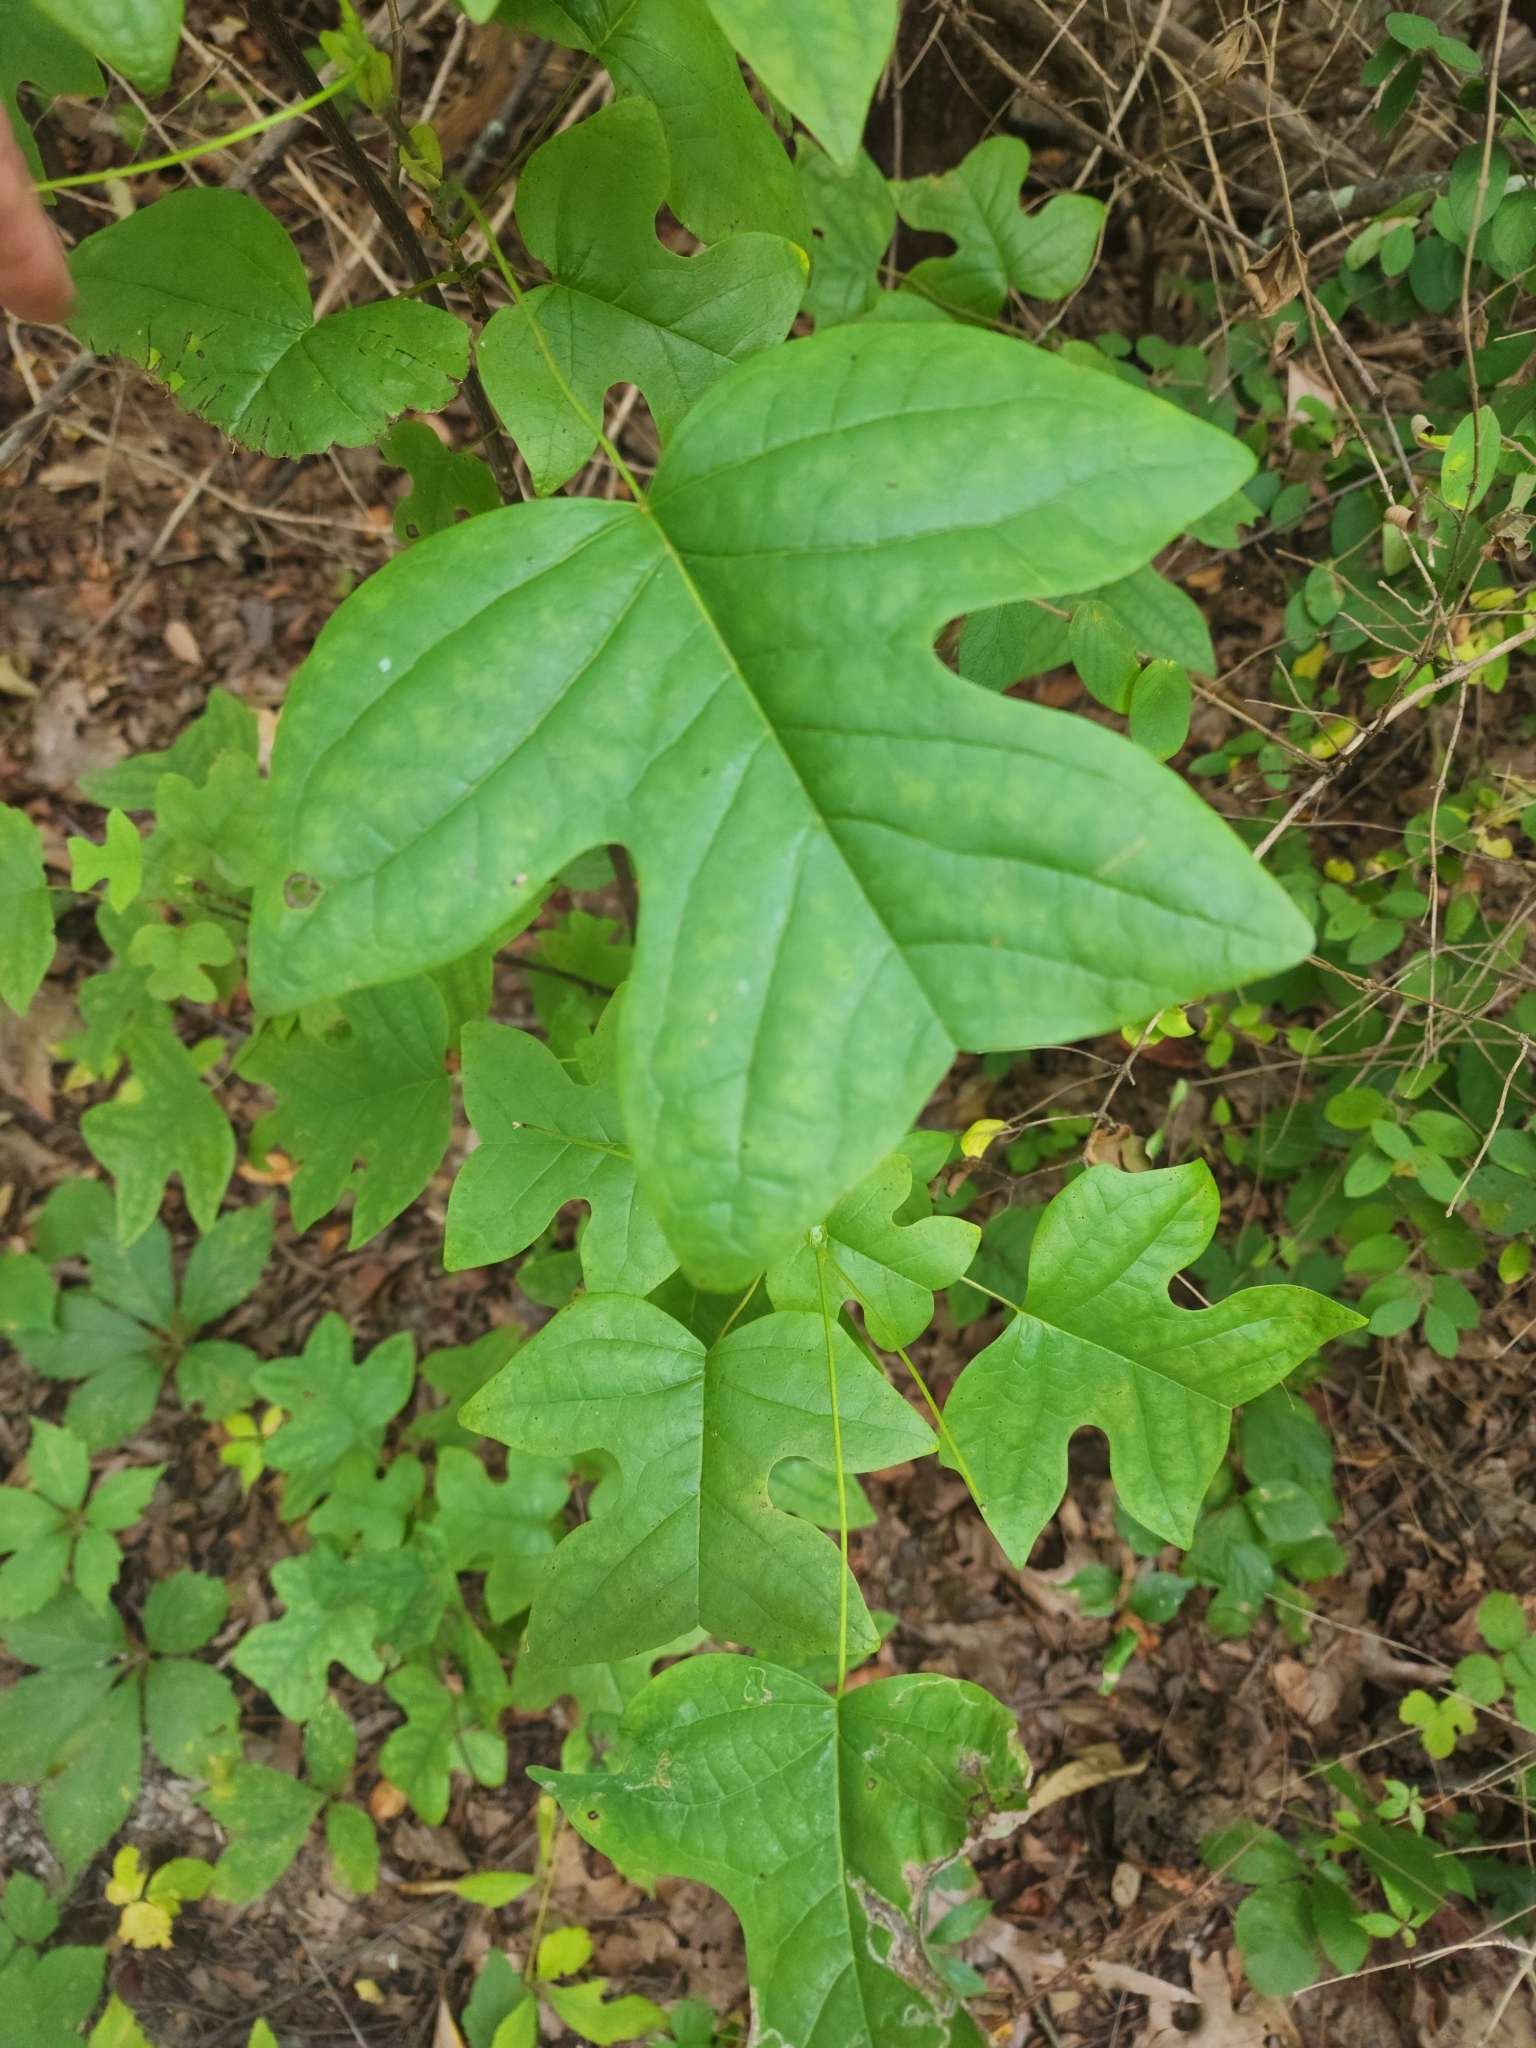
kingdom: Plantae
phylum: Tracheophyta
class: Magnoliopsida
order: Magnoliales
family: Magnoliaceae
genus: Liriodendron
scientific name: Liriodendron tulipifera
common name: Tulip tree
